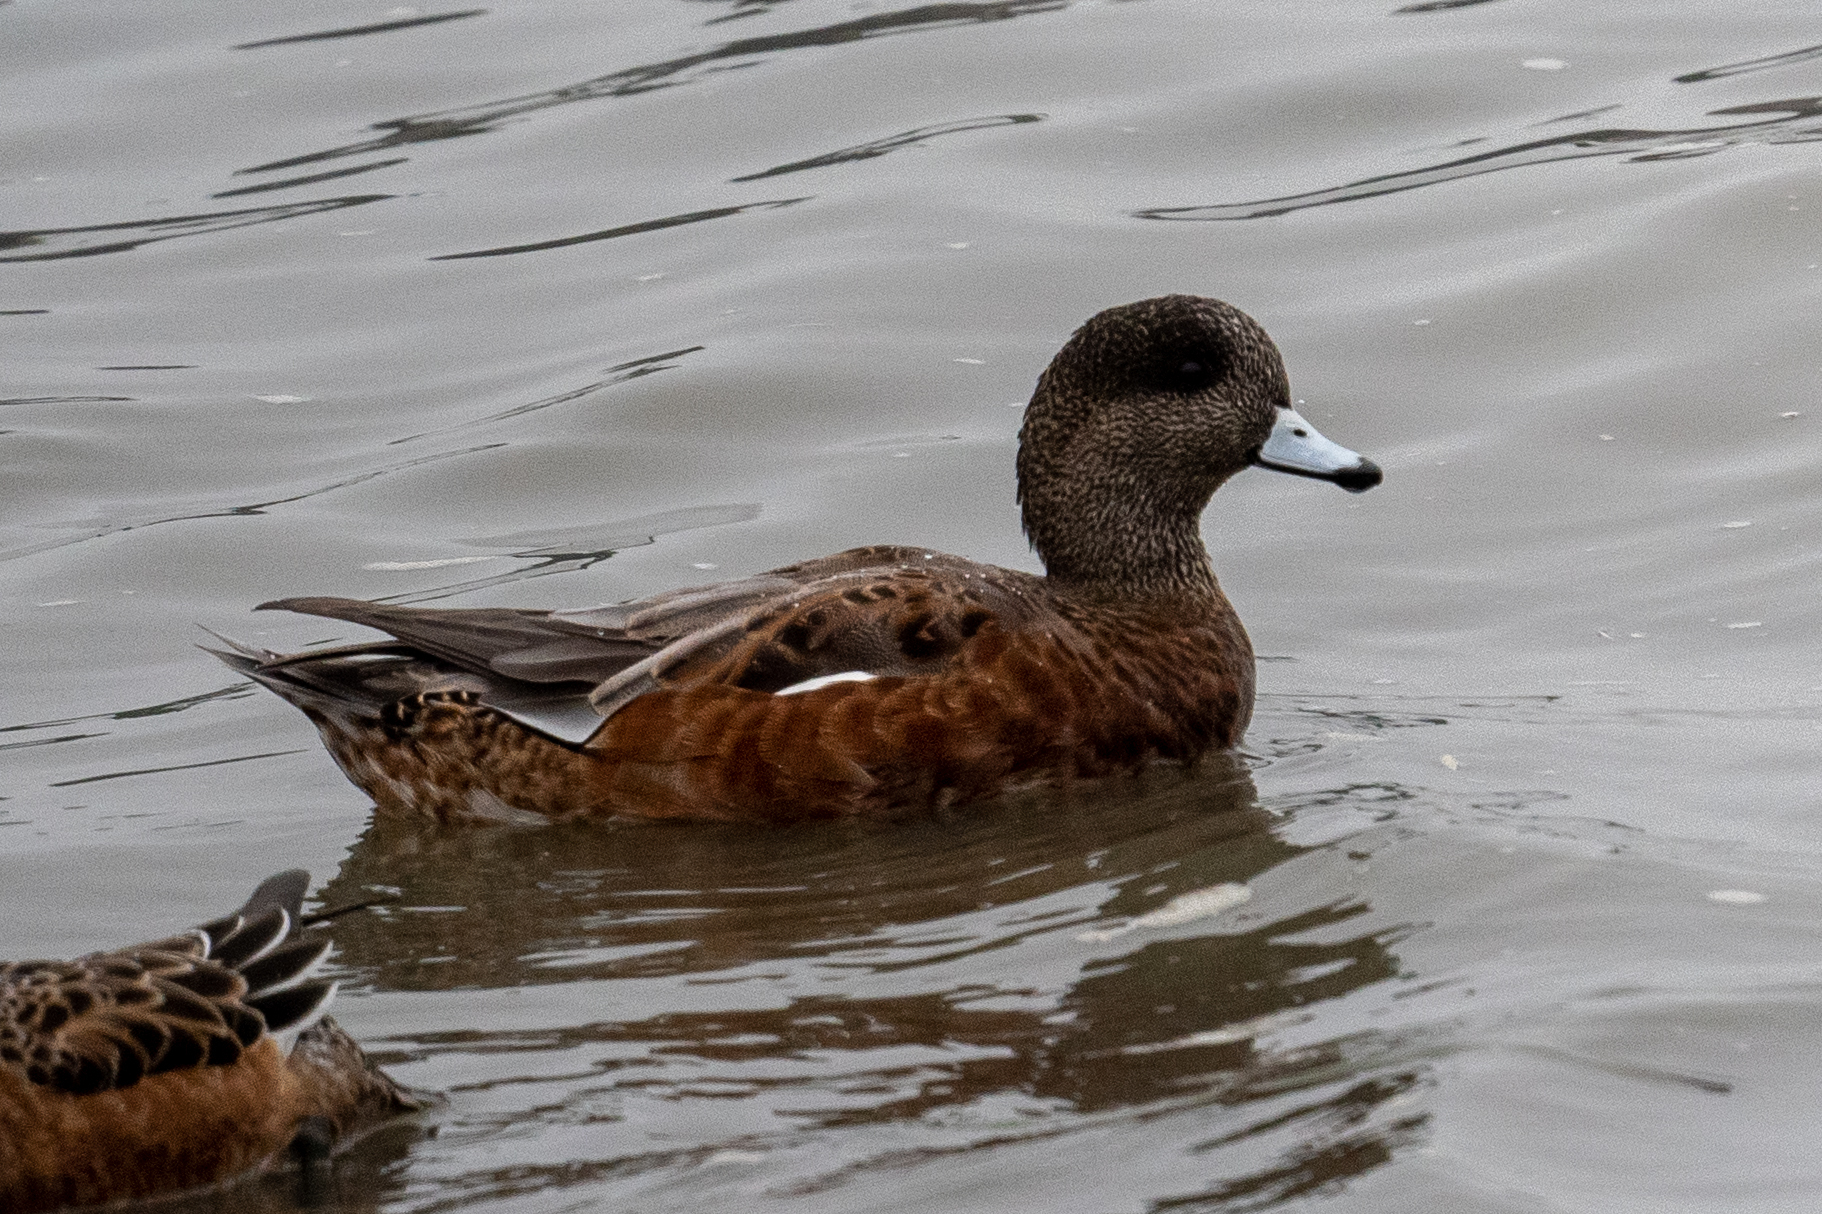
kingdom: Animalia
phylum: Chordata
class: Aves
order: Anseriformes
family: Anatidae
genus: Mareca
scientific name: Mareca americana
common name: American wigeon
